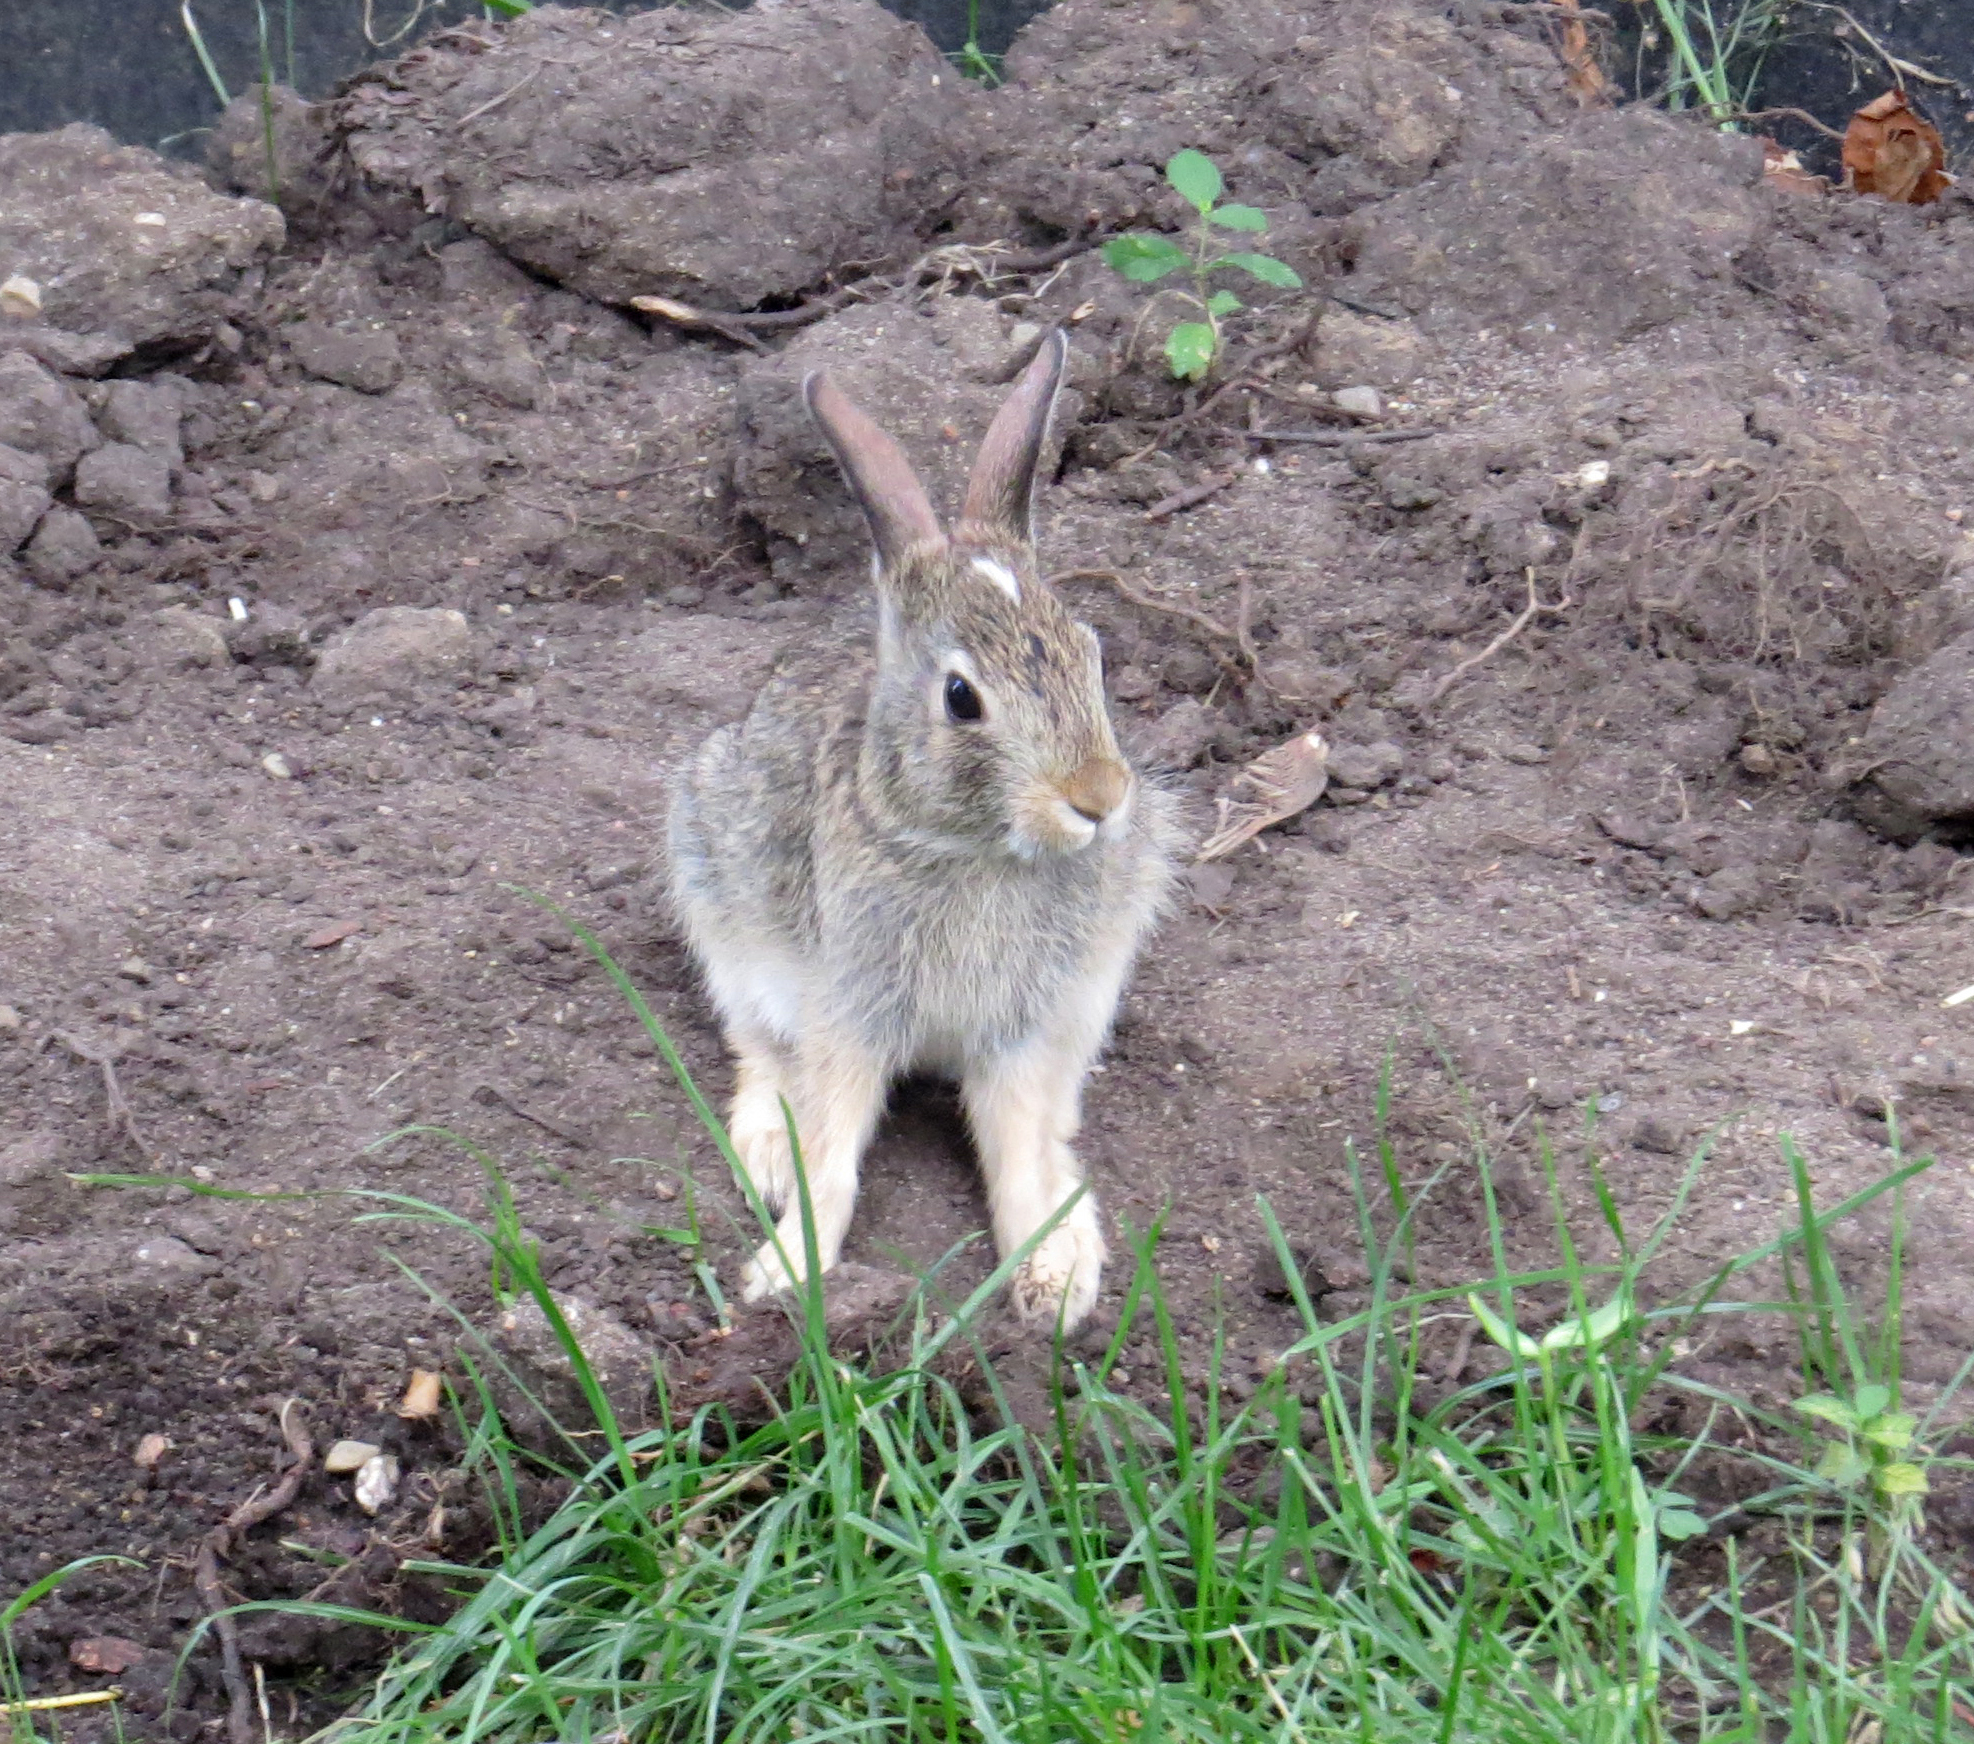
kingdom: Animalia
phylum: Chordata
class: Mammalia
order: Lagomorpha
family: Leporidae
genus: Sylvilagus
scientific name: Sylvilagus floridanus
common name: Eastern cottontail
